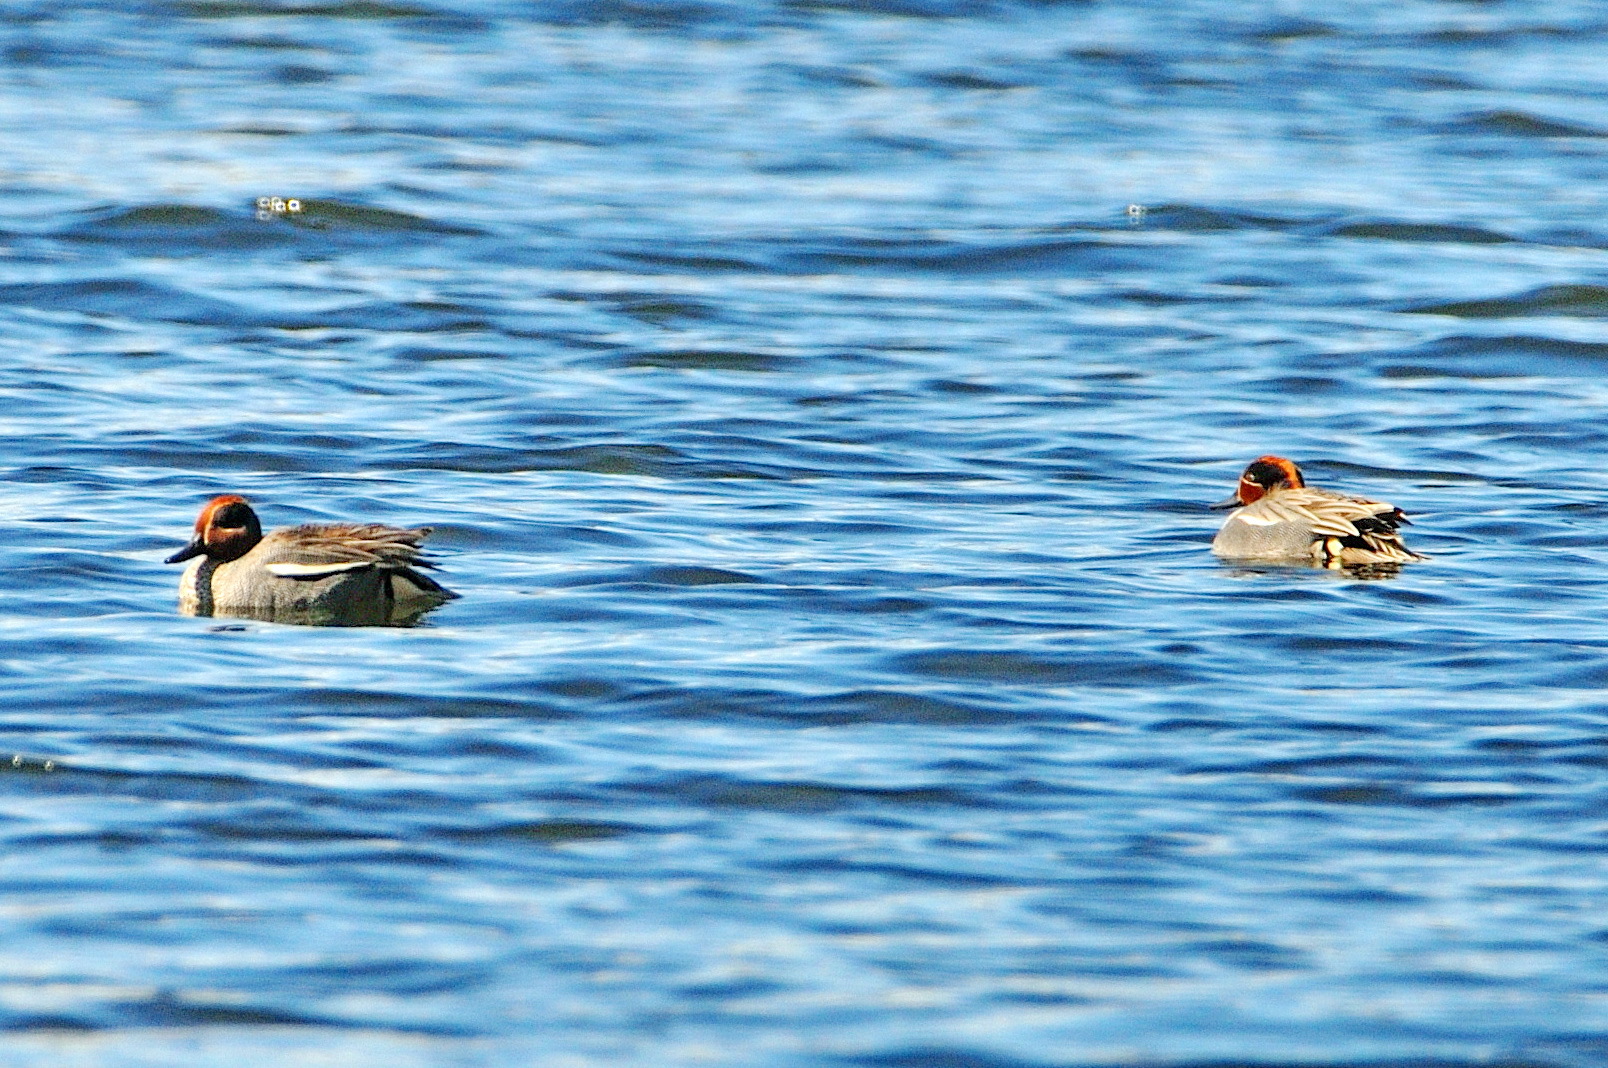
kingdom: Animalia
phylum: Chordata
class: Aves
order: Anseriformes
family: Anatidae
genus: Anas
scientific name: Anas crecca
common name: Eurasian teal
